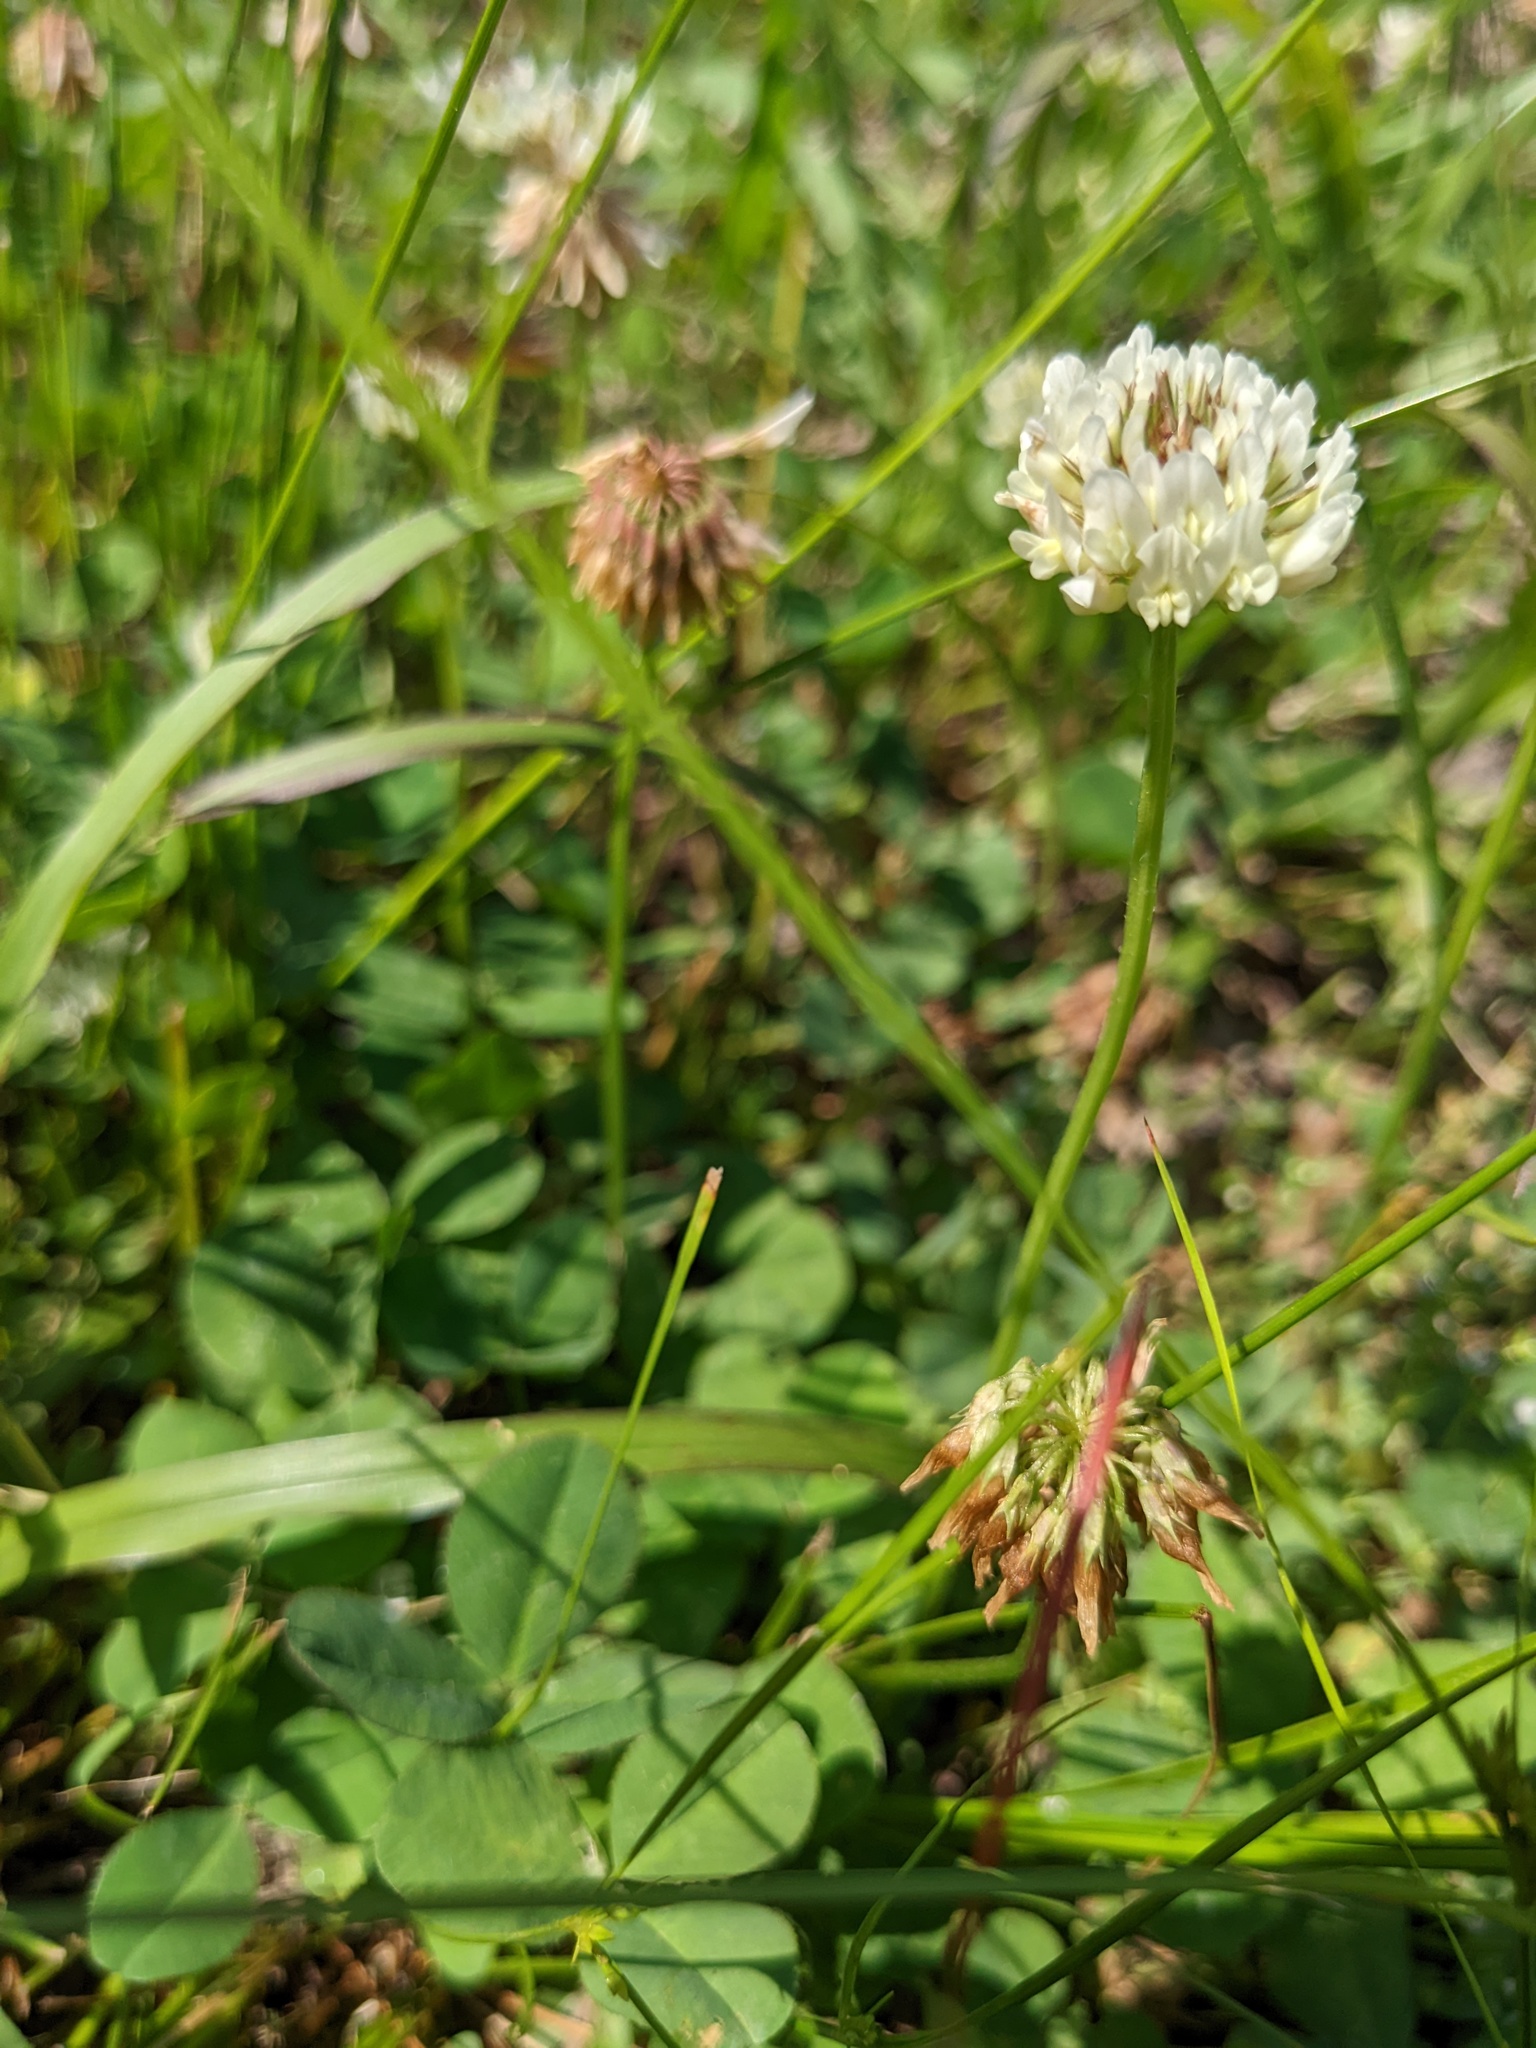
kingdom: Plantae
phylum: Tracheophyta
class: Magnoliopsida
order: Fabales
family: Fabaceae
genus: Trifolium
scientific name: Trifolium repens
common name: White clover
